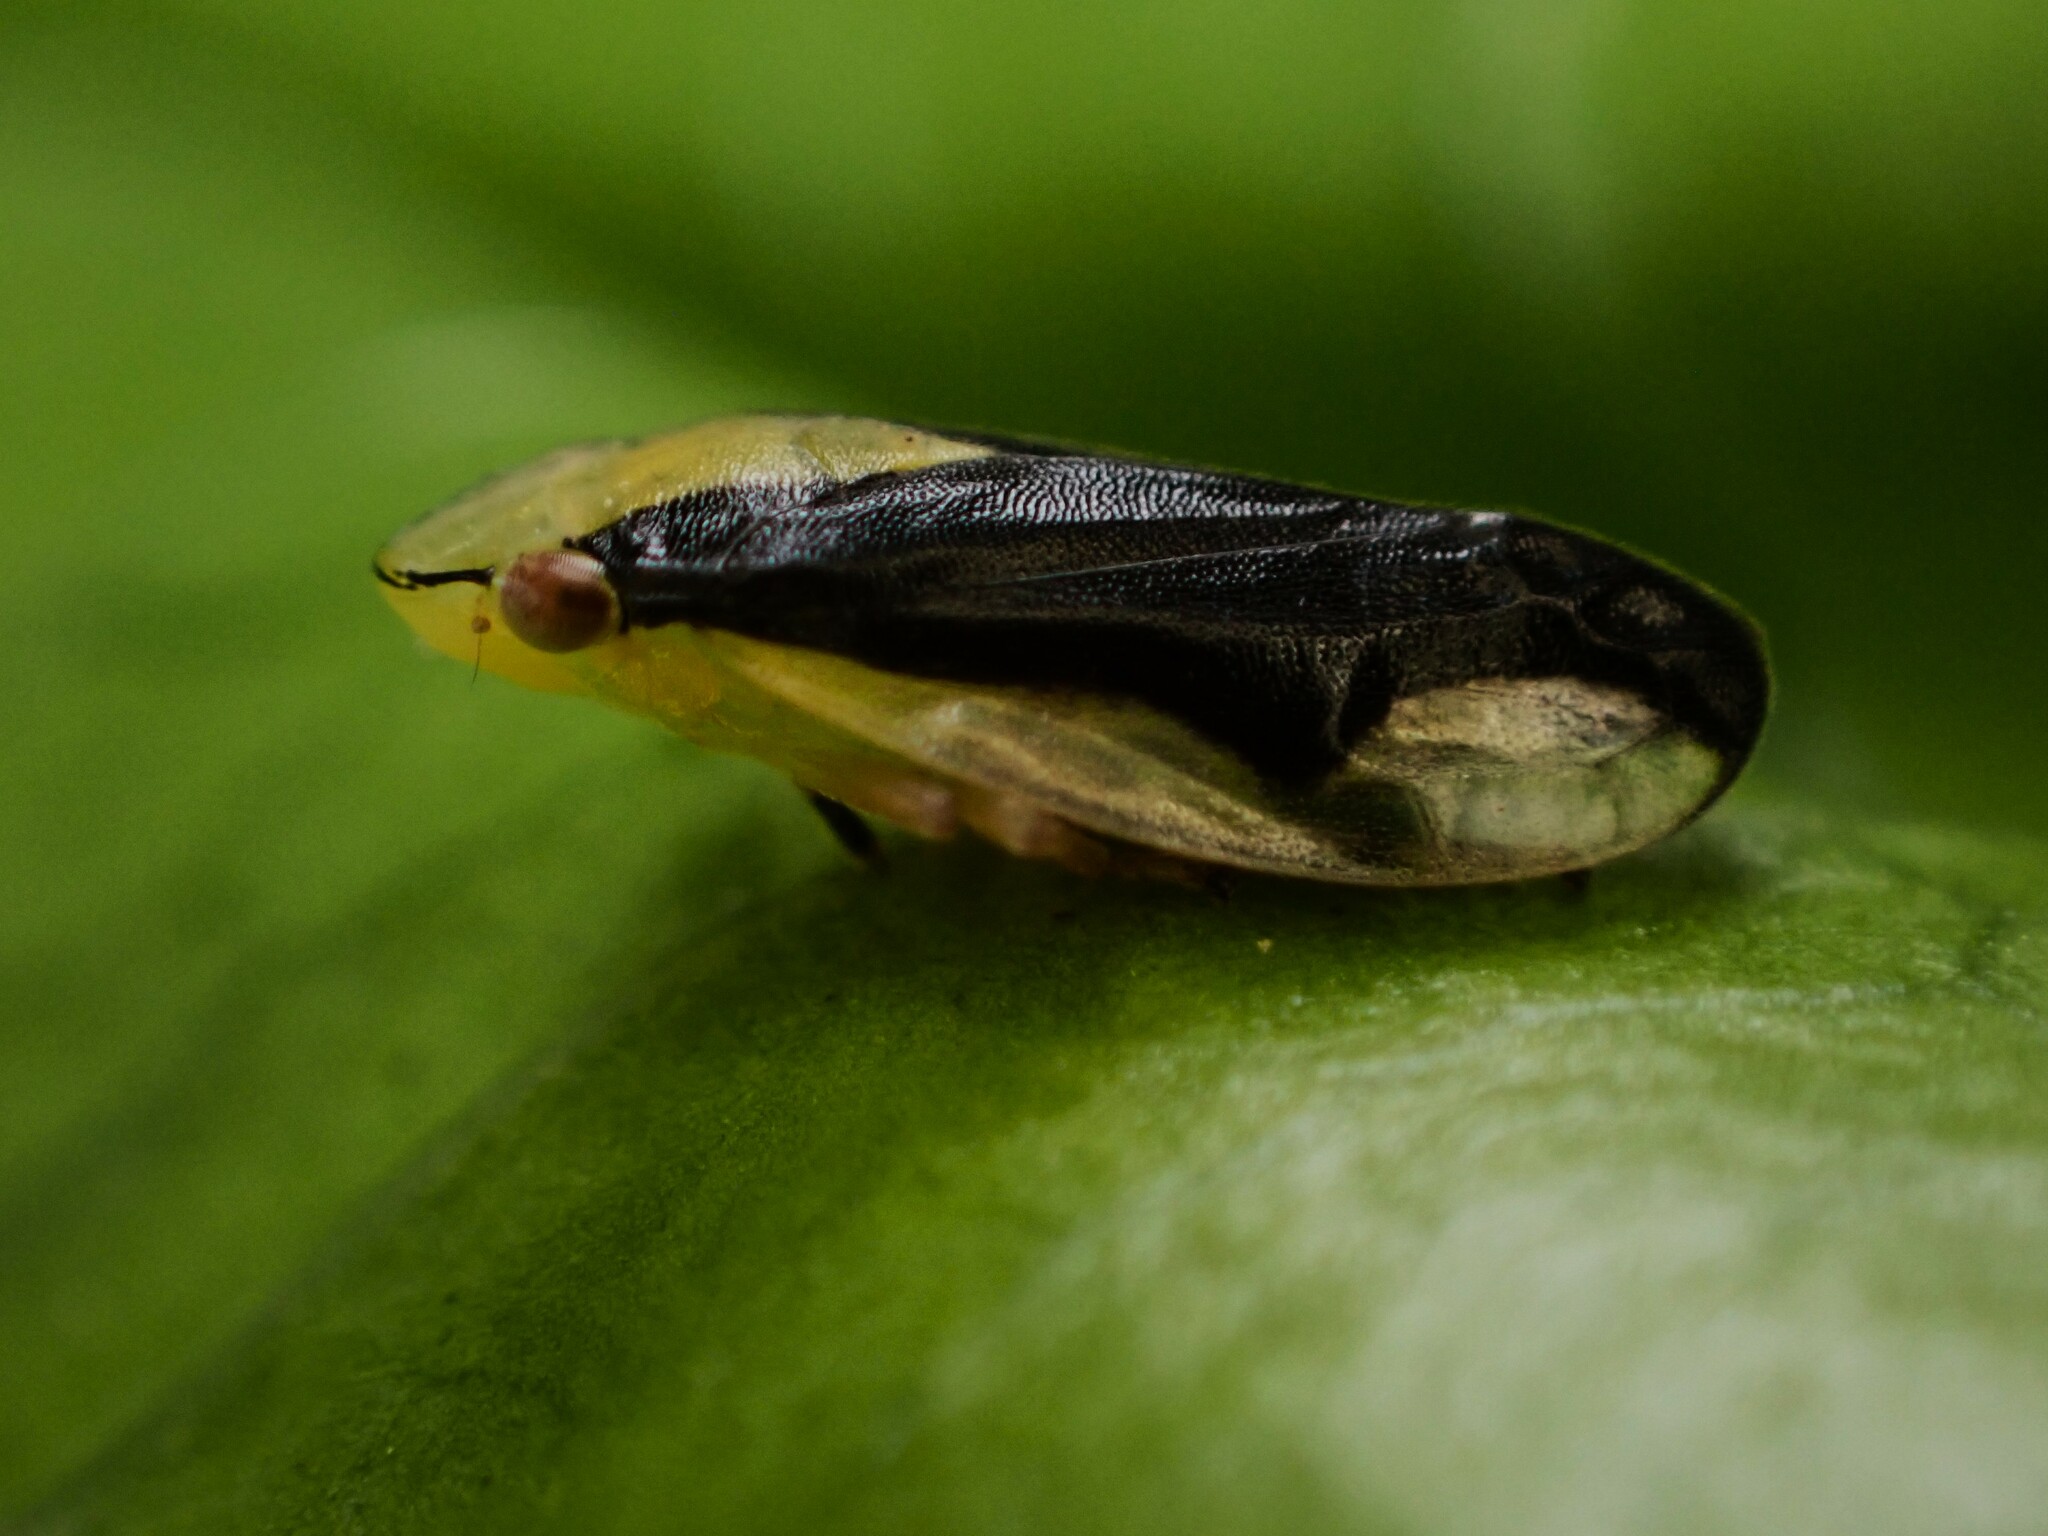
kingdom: Animalia
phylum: Arthropoda
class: Insecta
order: Hemiptera
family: Aphrophoridae
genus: Lallemandana
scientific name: Lallemandana rarotongae
